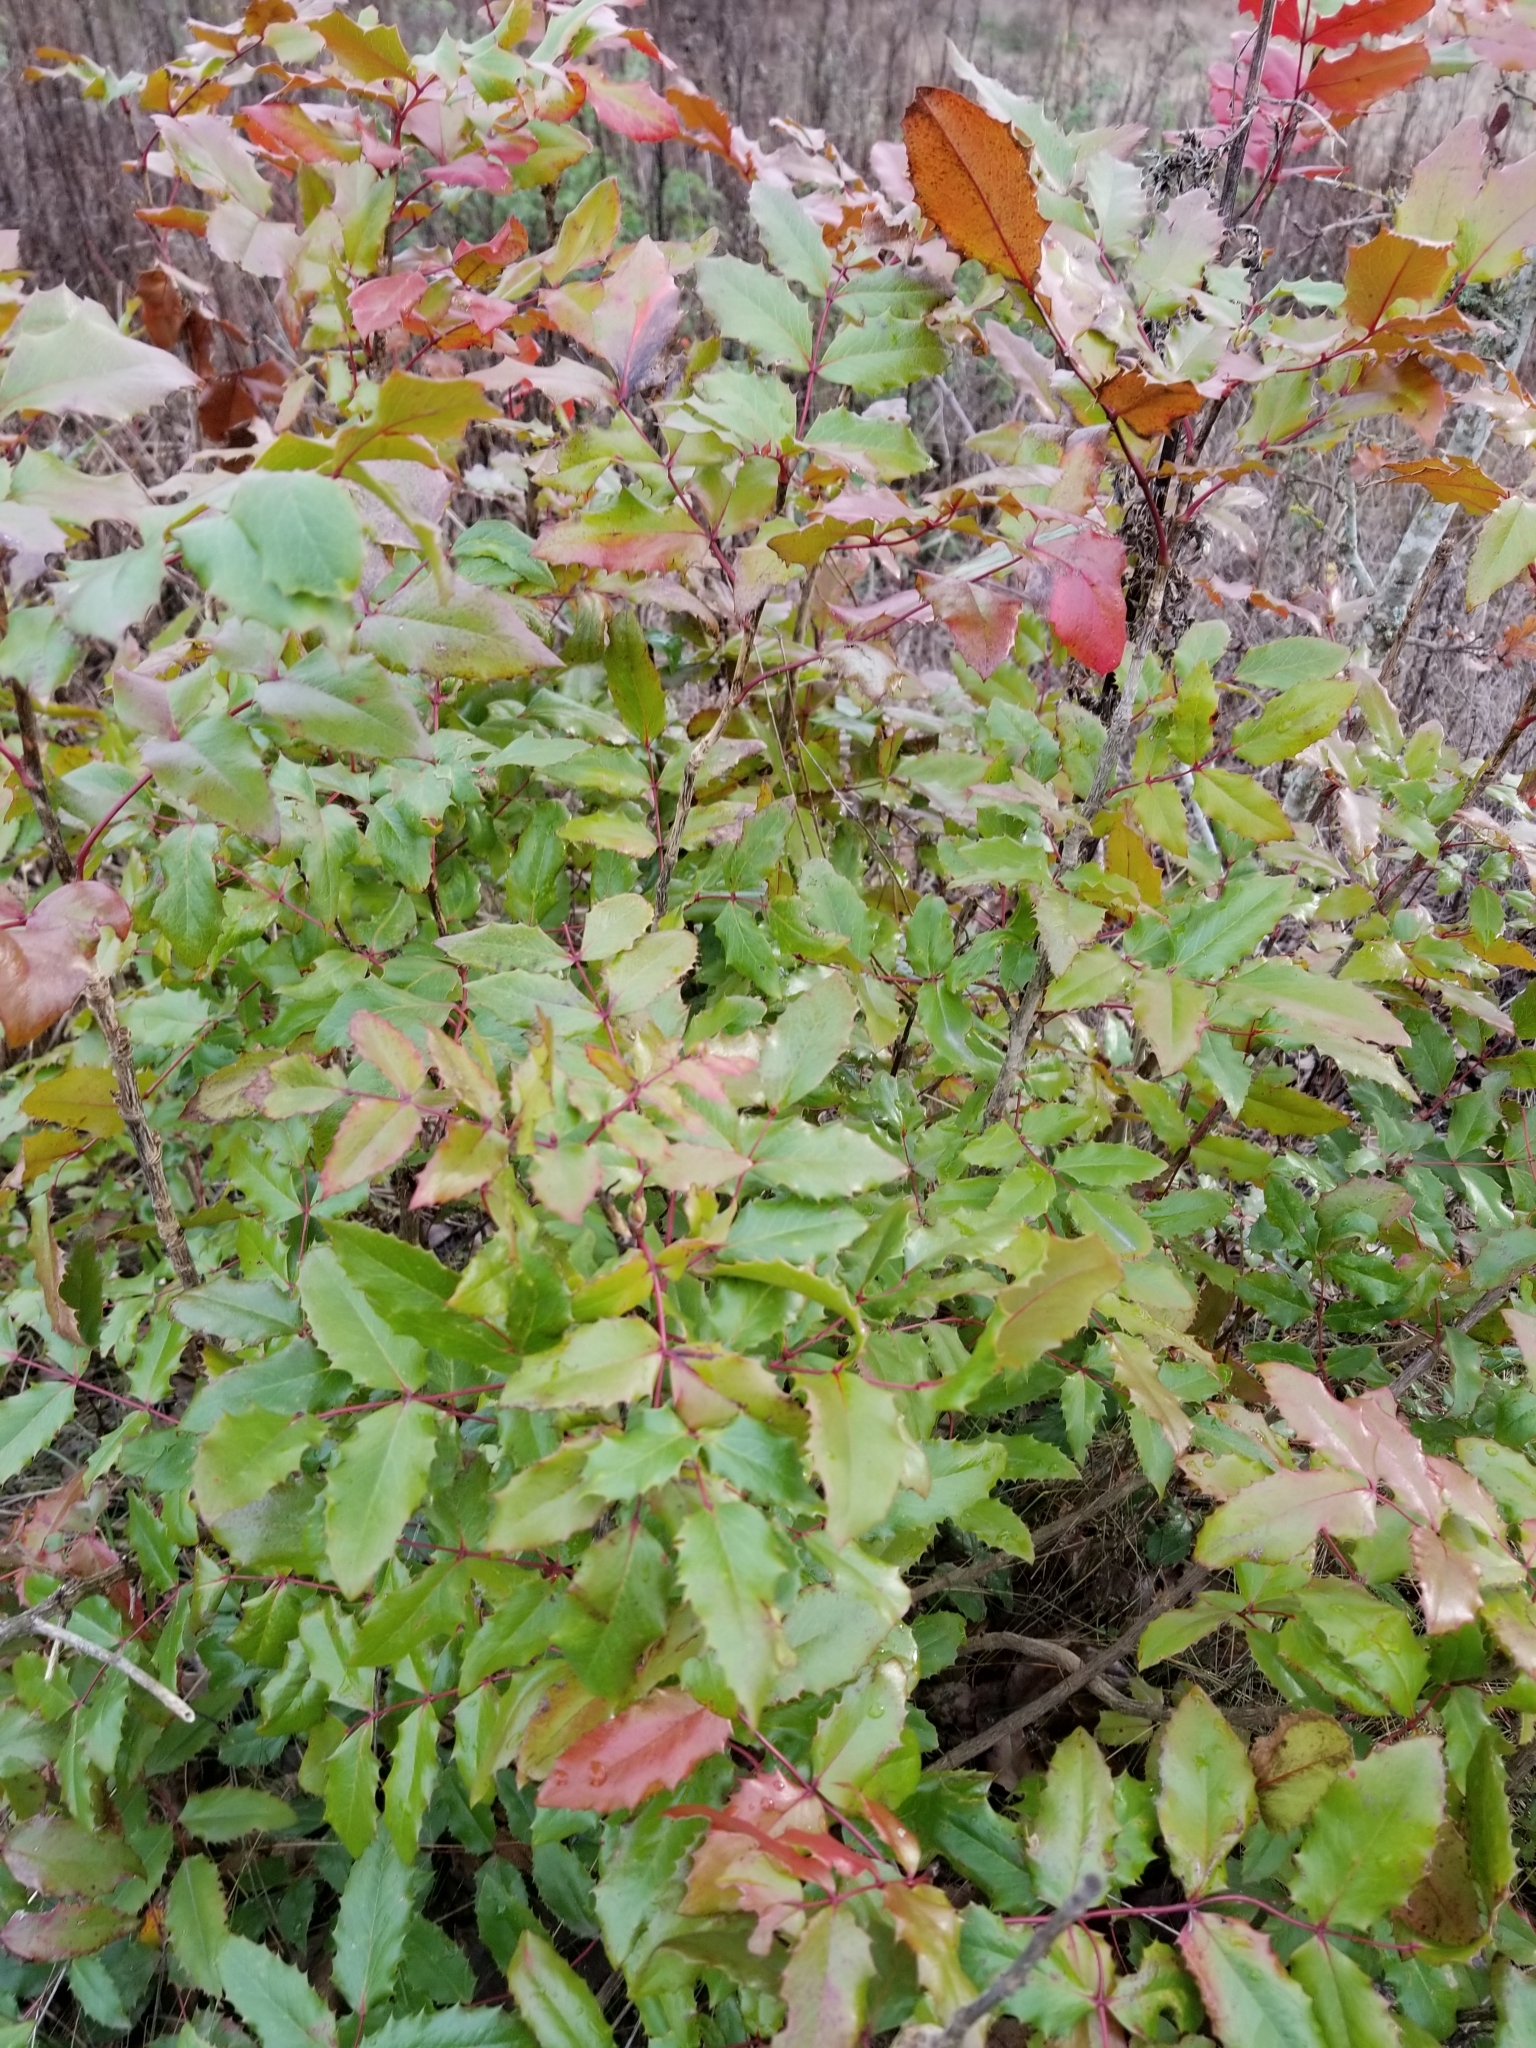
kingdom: Plantae
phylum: Tracheophyta
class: Magnoliopsida
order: Ranunculales
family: Berberidaceae
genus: Mahonia
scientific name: Mahonia aquifolium
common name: Oregon-grape
